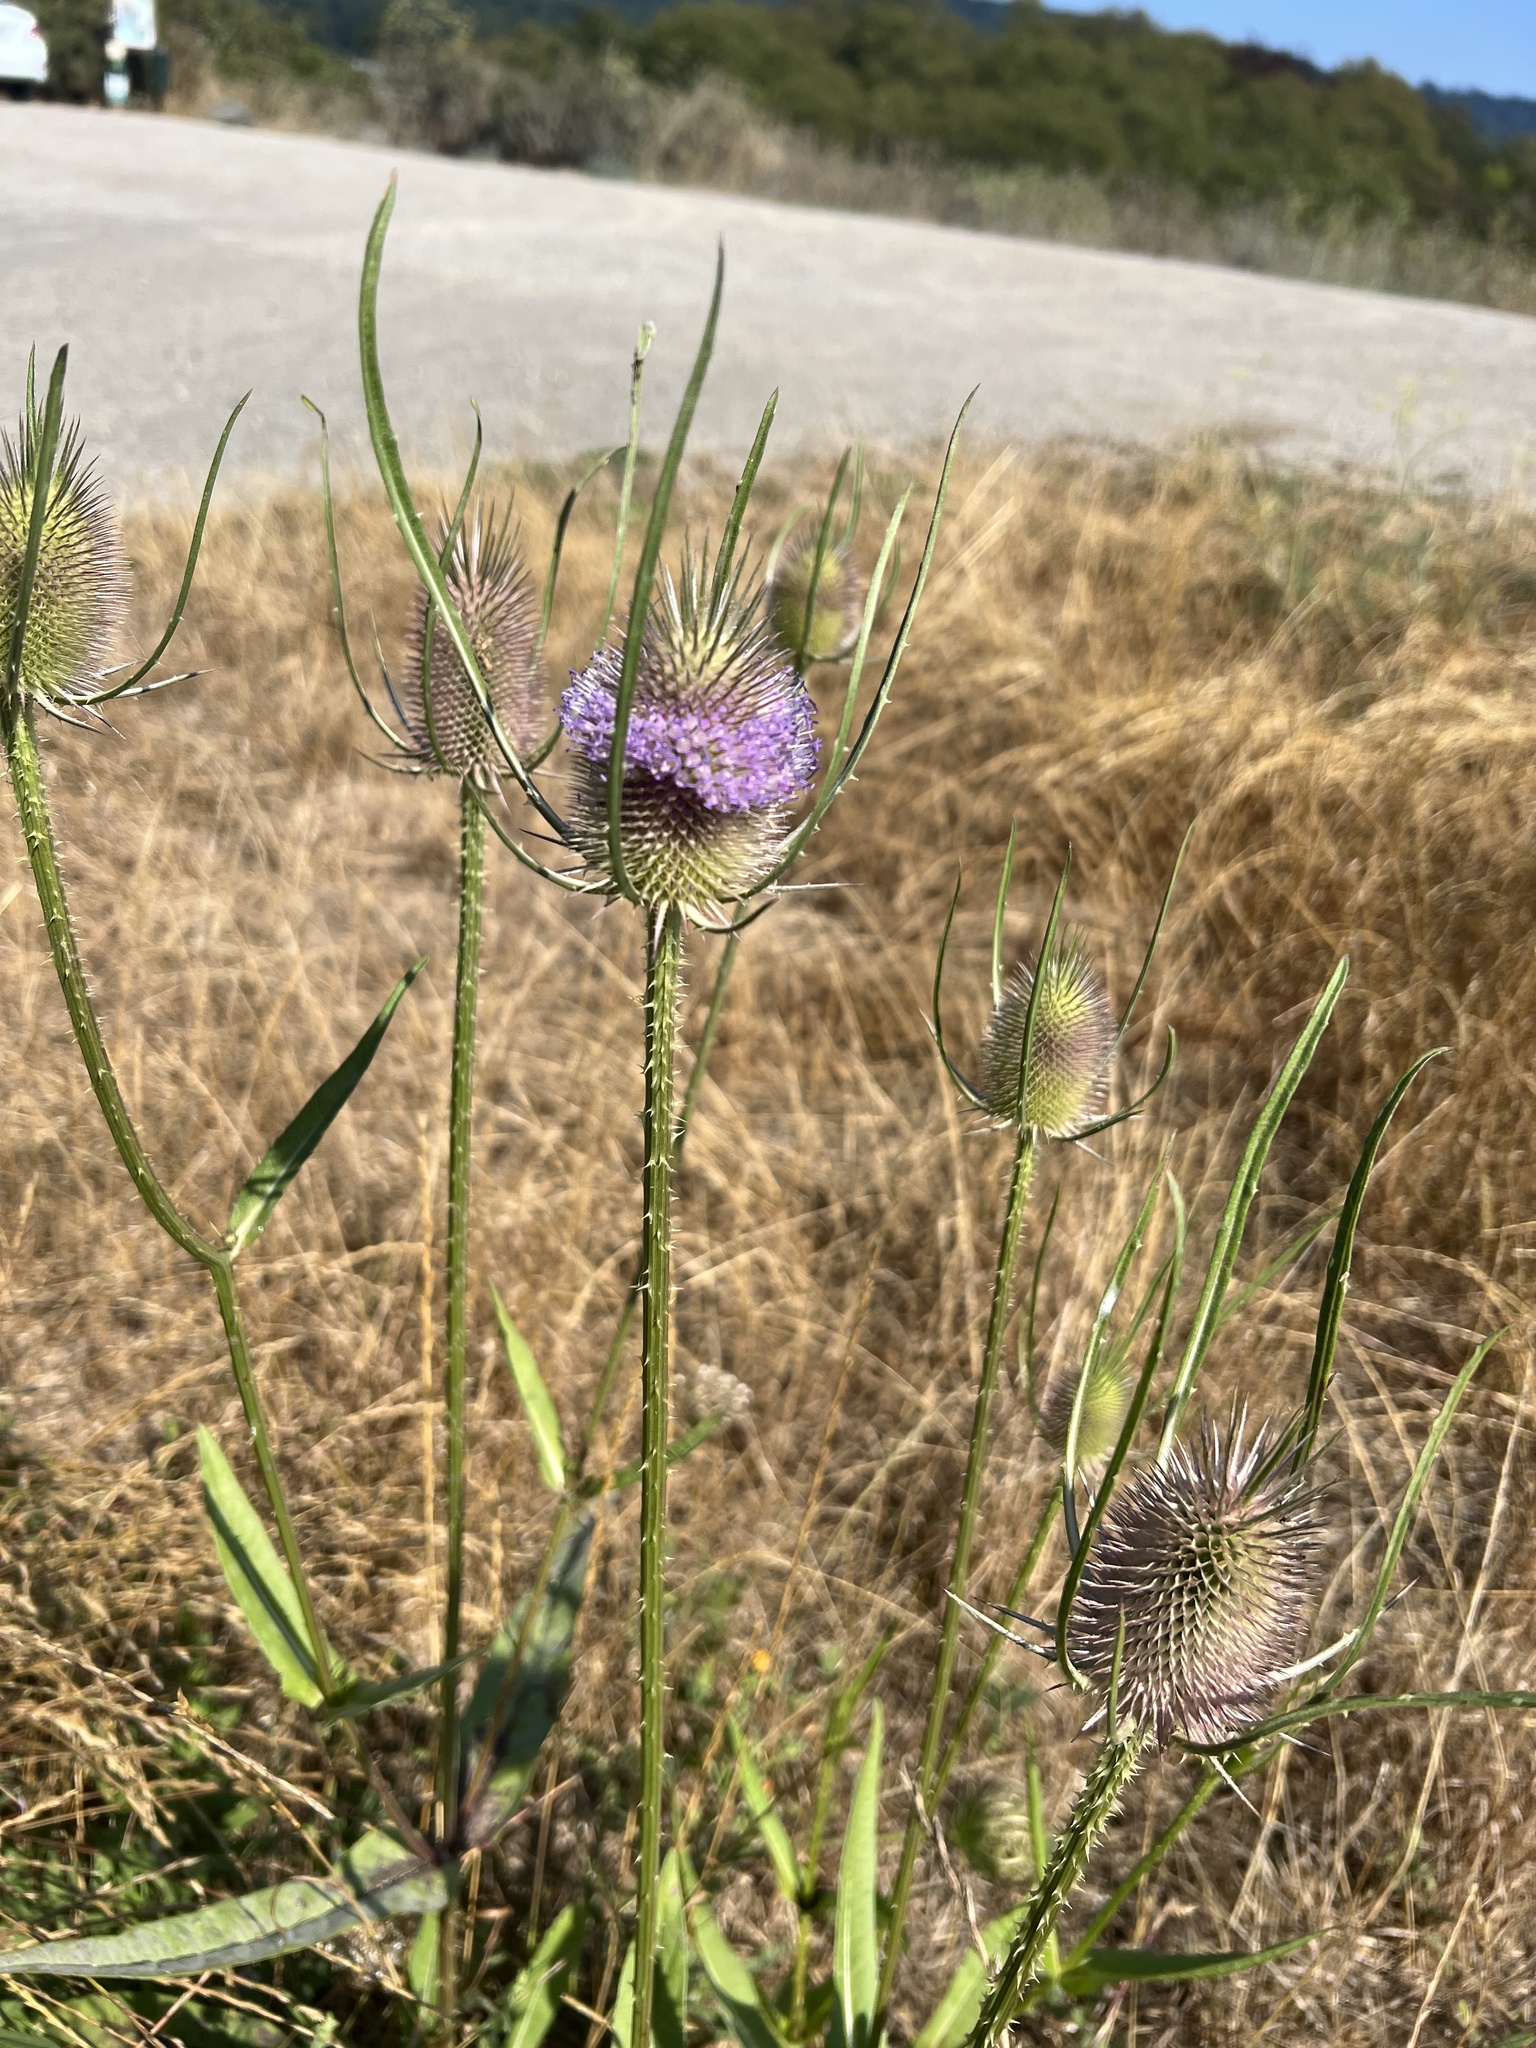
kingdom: Plantae
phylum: Tracheophyta
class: Magnoliopsida
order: Dipsacales
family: Caprifoliaceae
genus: Dipsacus
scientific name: Dipsacus fullonum
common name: Teasel
